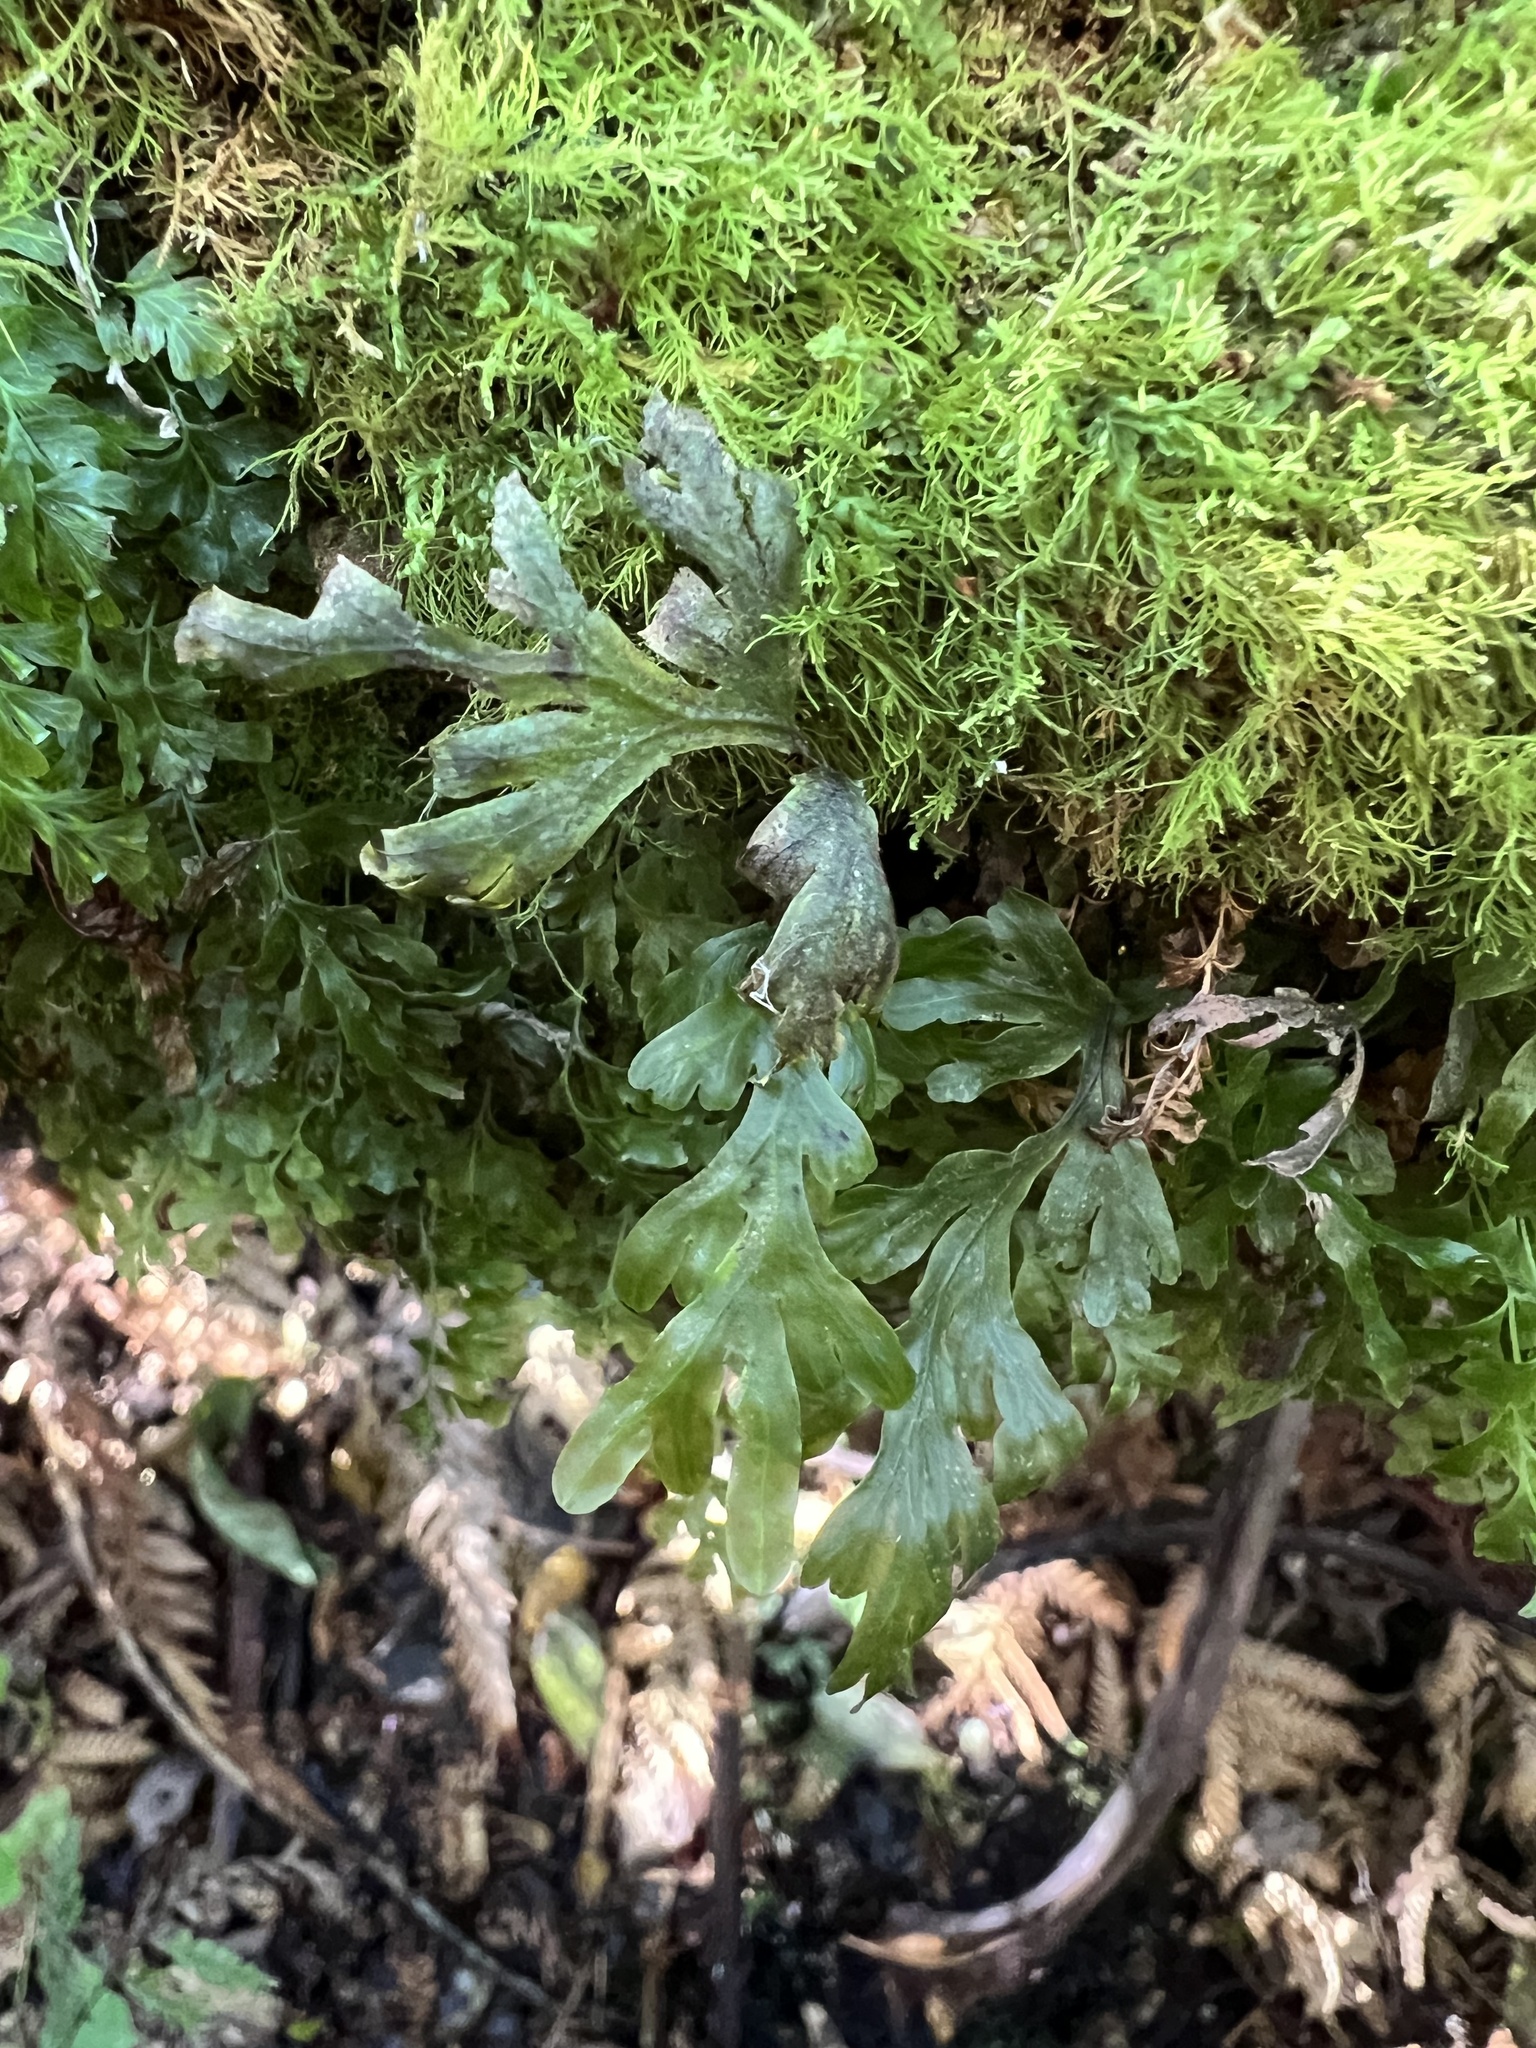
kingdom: Plantae
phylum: Tracheophyta
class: Polypodiopsida
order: Hymenophyllales
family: Hymenophyllaceae
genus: Hymenophyllum
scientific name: Hymenophyllum dilatatum
